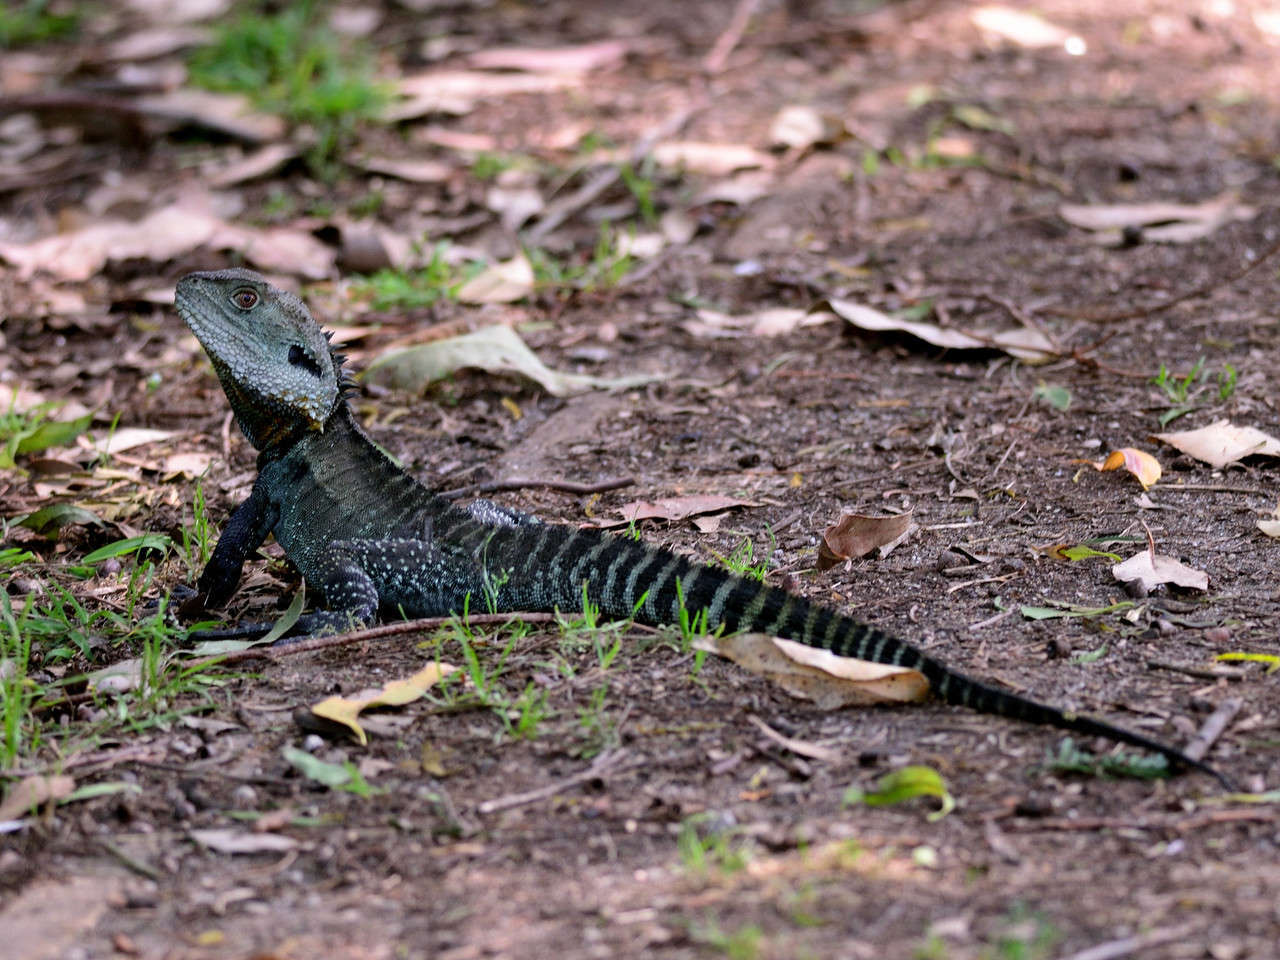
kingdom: Animalia
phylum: Chordata
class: Squamata
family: Agamidae
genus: Intellagama
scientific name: Intellagama lesueurii
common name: Eastern water dragon
